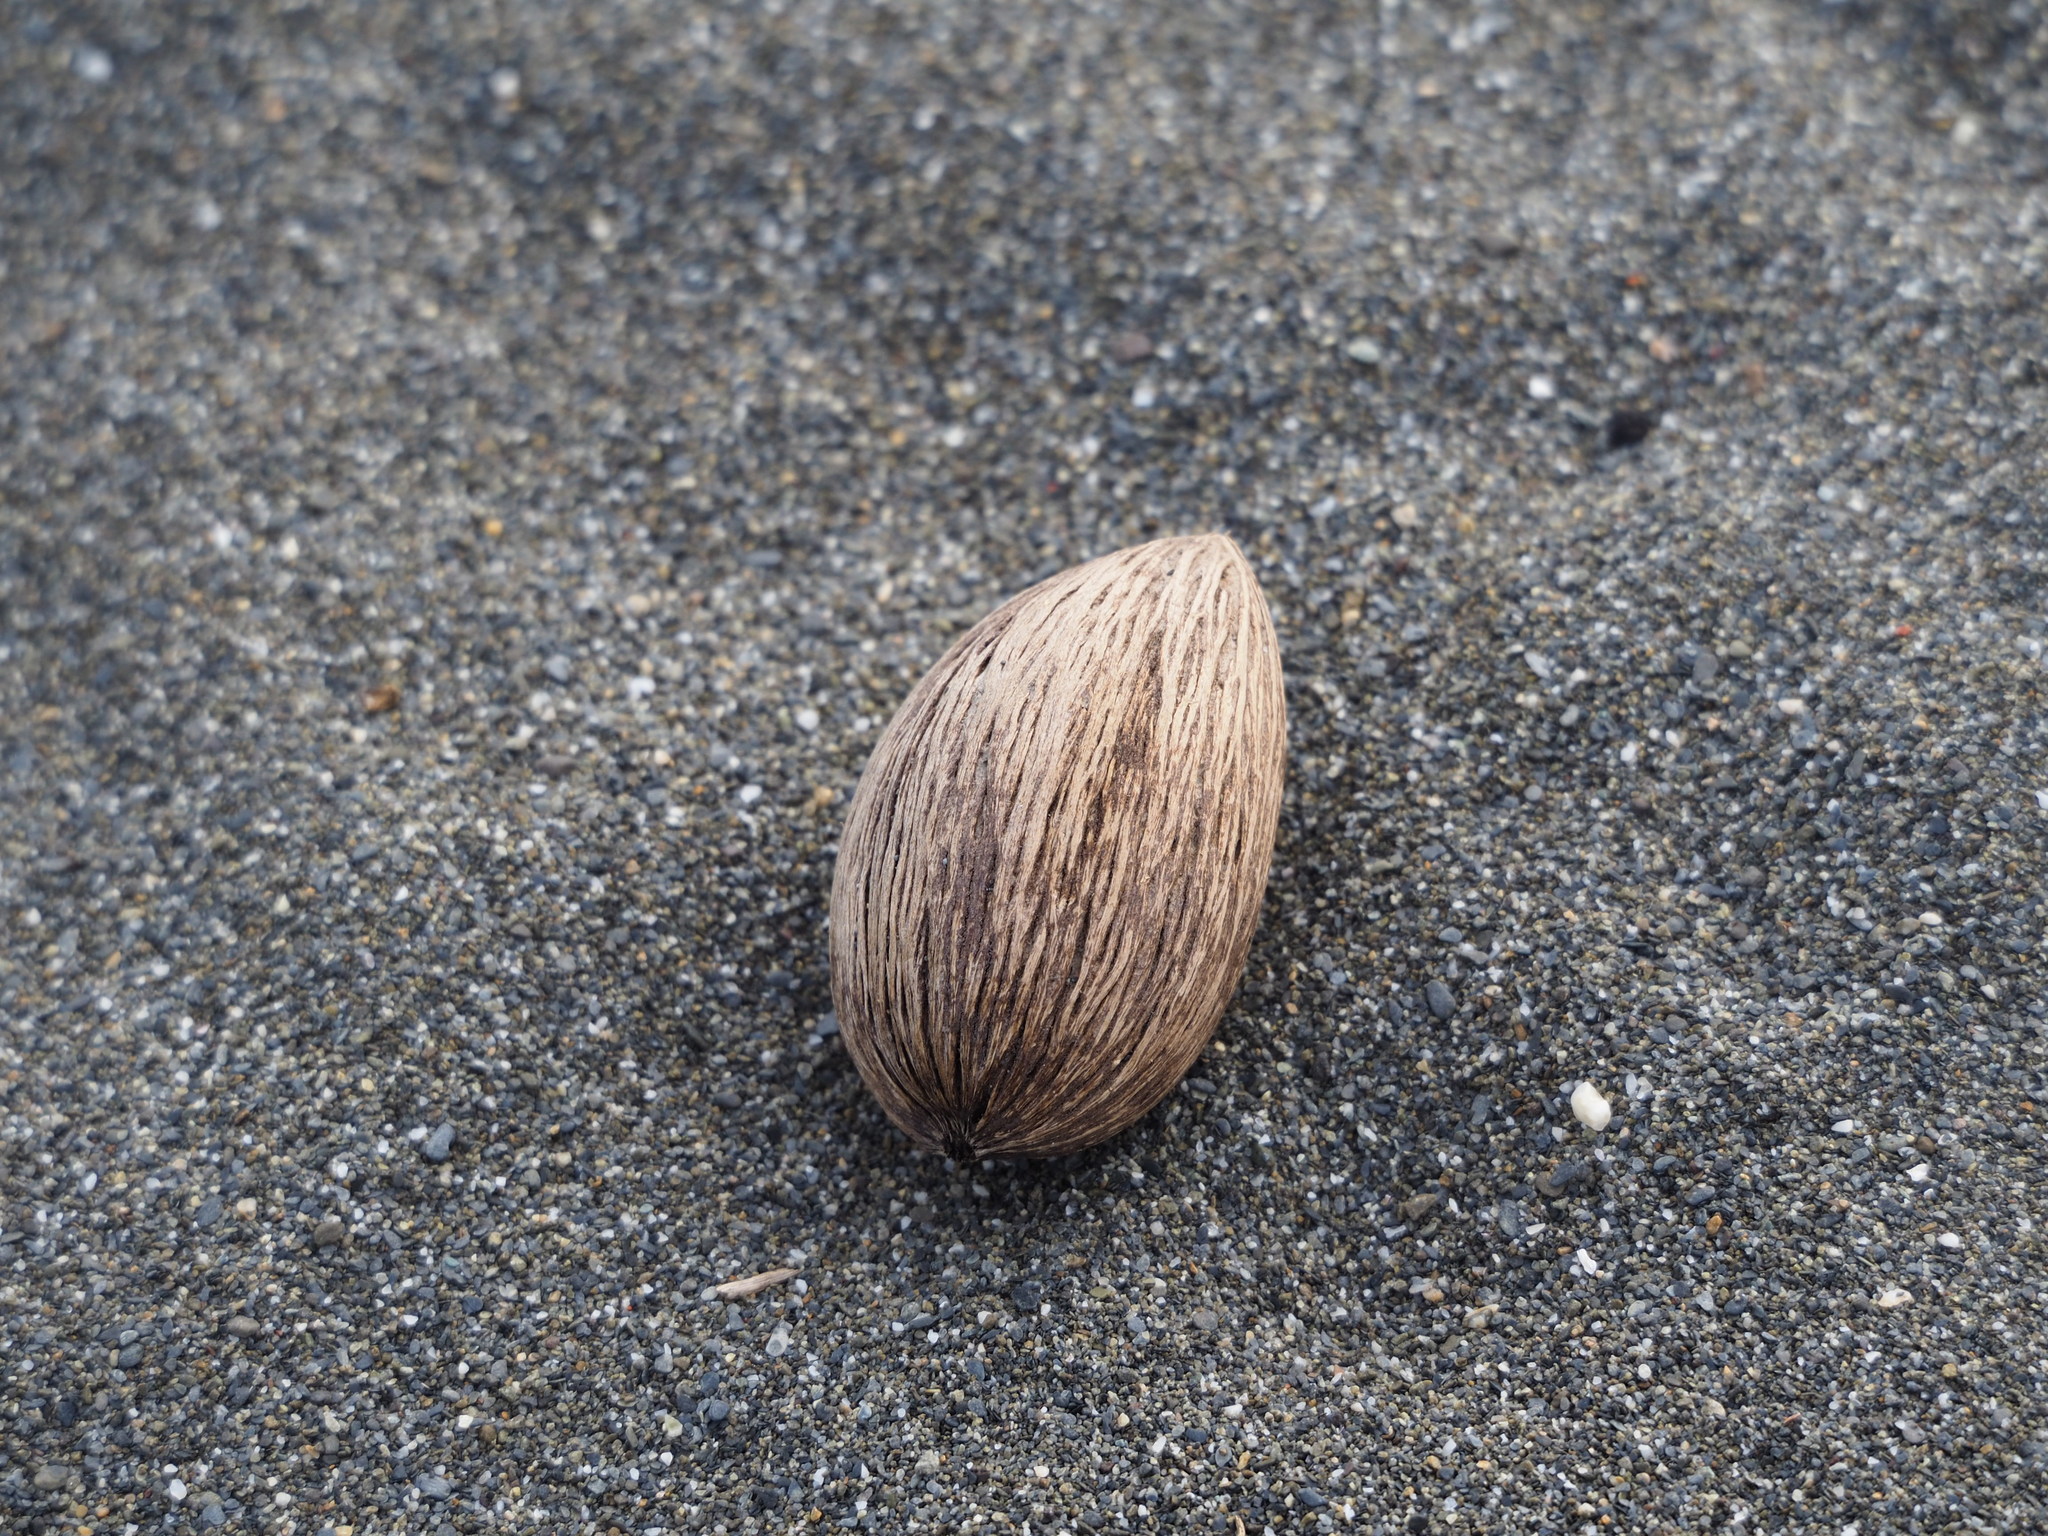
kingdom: Plantae
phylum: Tracheophyta
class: Magnoliopsida
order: Gentianales
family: Apocynaceae
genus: Cerbera
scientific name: Cerbera manghas
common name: Reva
